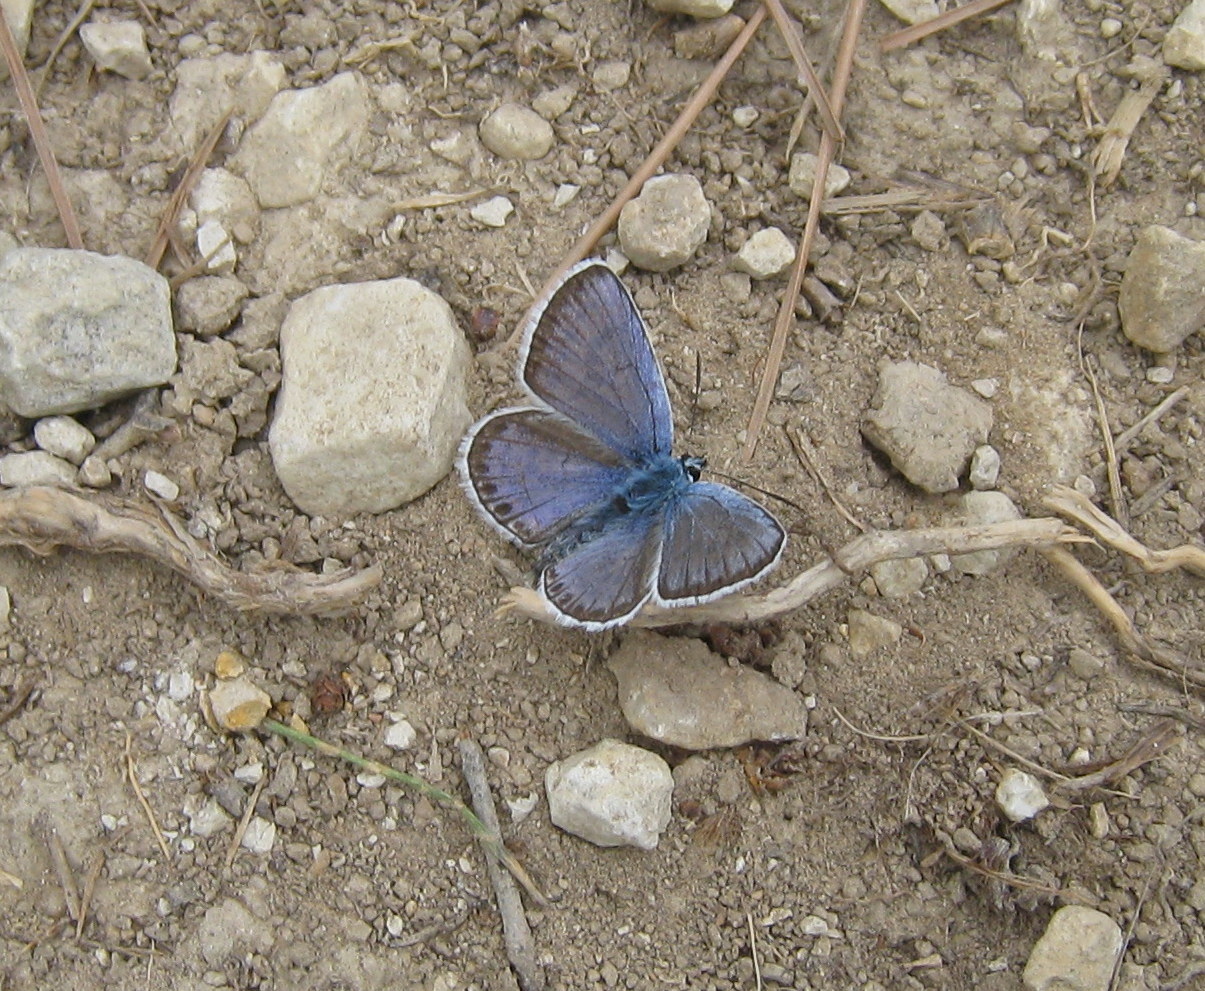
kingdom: Animalia
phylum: Arthropoda
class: Insecta
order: Lepidoptera
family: Lycaenidae
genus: Plebejus
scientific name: Plebejus argus
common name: Silver-studded blue
